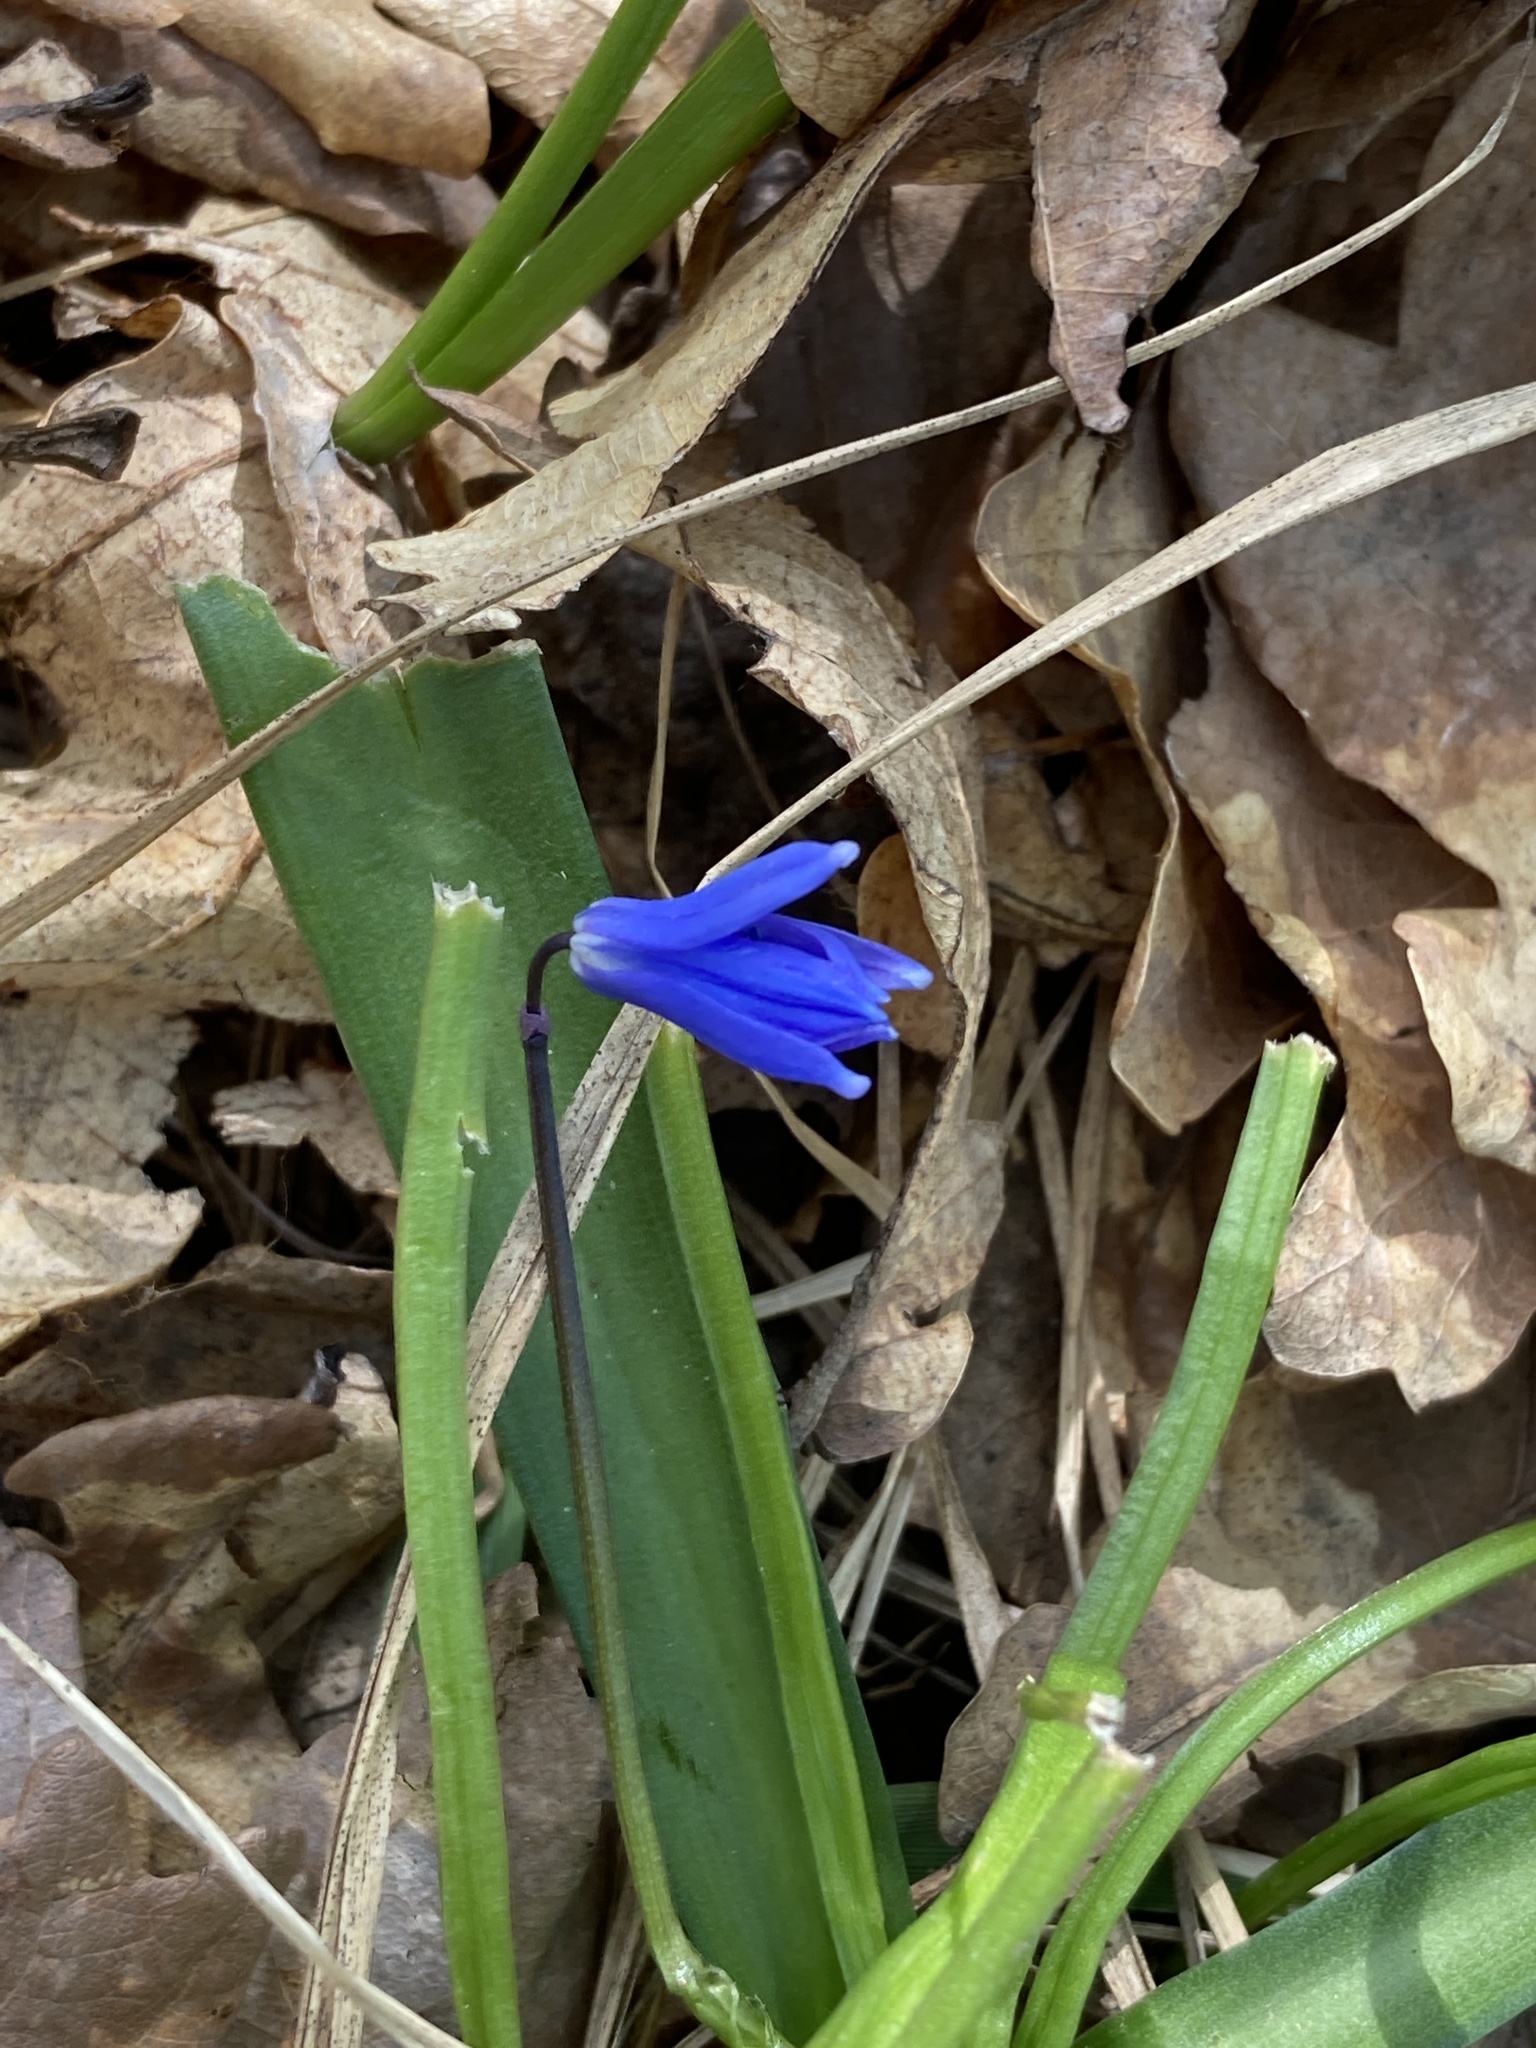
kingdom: Plantae
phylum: Tracheophyta
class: Liliopsida
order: Asparagales
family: Asparagaceae
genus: Scilla
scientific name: Scilla siberica
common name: Siberian squill
